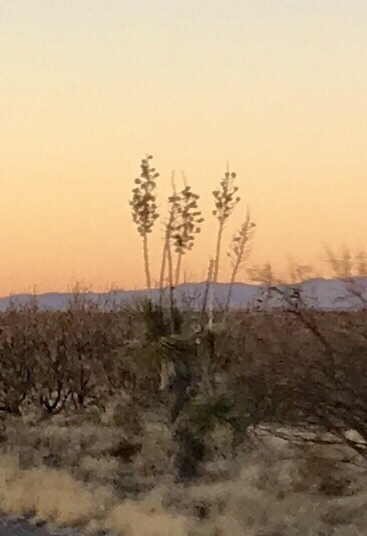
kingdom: Plantae
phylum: Tracheophyta
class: Liliopsida
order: Asparagales
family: Asparagaceae
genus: Yucca
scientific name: Yucca elata
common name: Palmella
